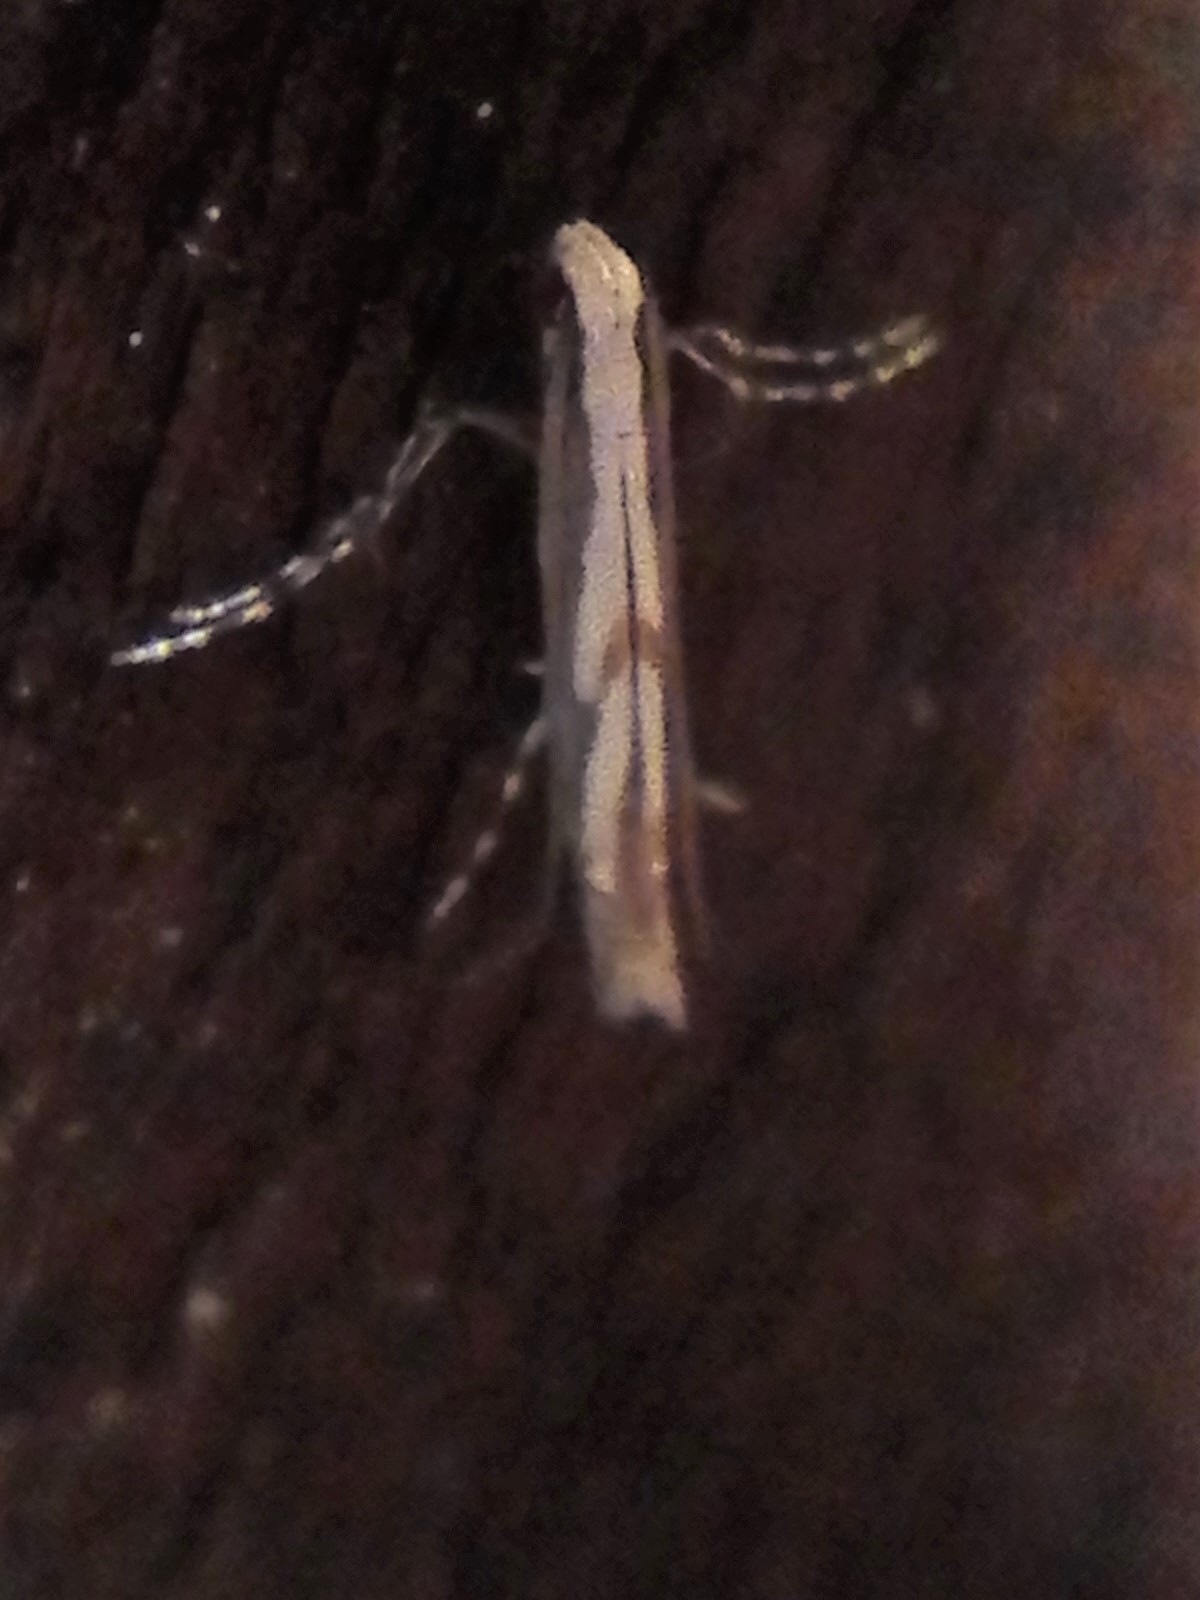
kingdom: Animalia
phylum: Arthropoda
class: Insecta
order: Lepidoptera
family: Gracillariidae
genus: Acrocercops
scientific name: Acrocercops leucotoma
